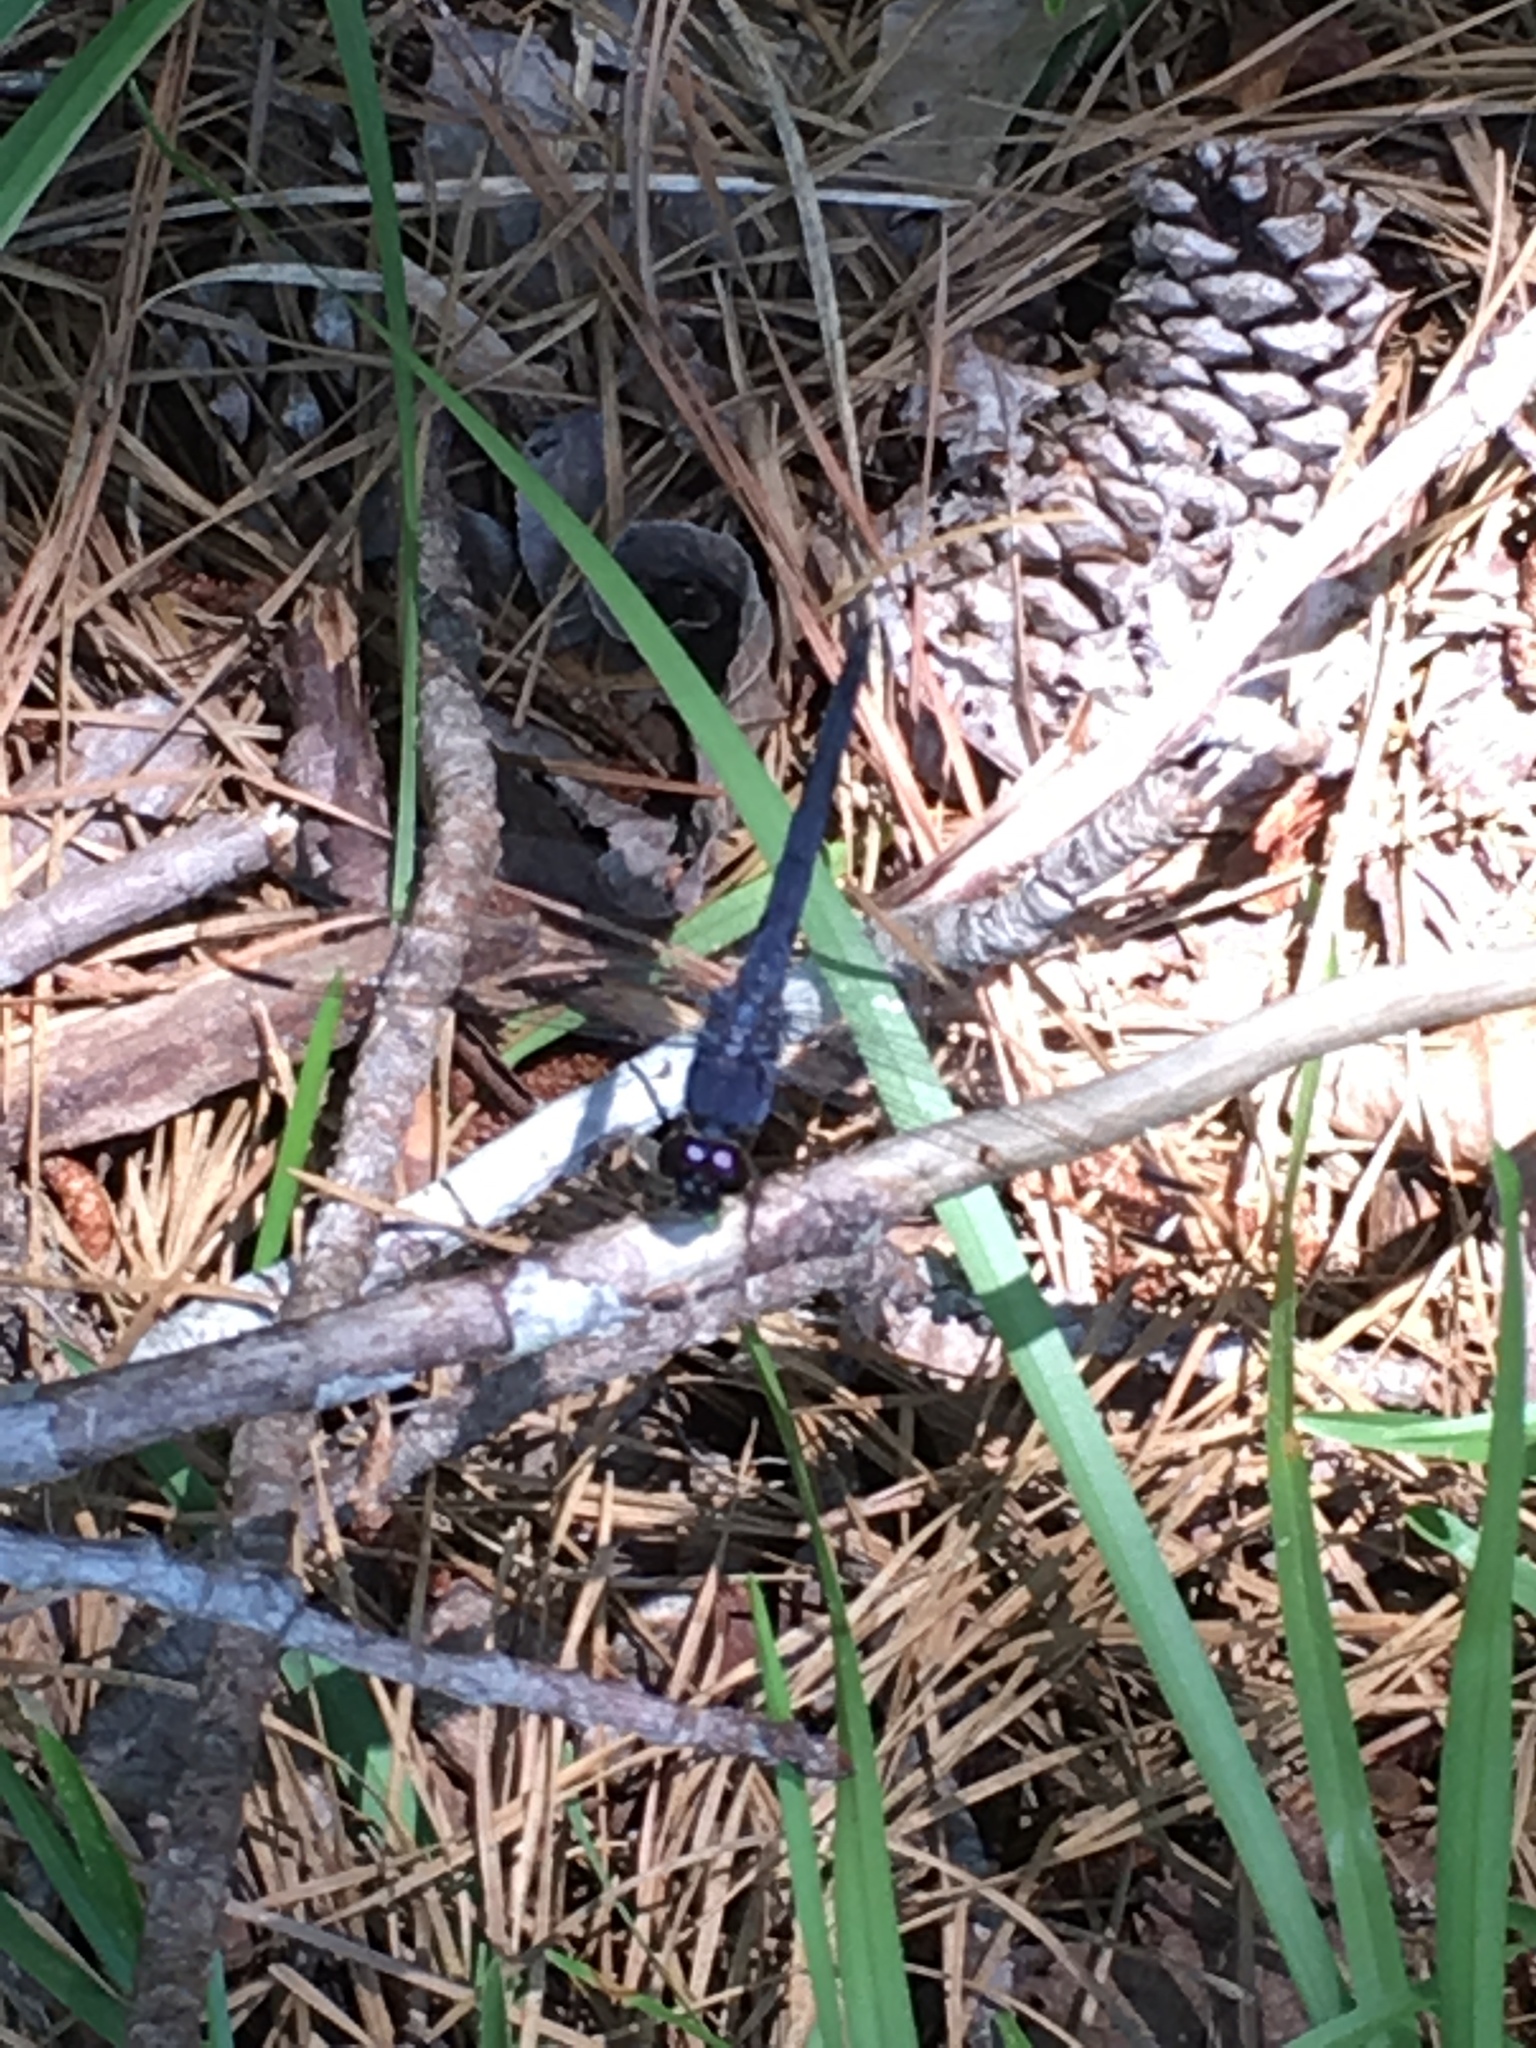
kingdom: Animalia
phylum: Arthropoda
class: Insecta
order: Odonata
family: Libellulidae
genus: Libellula
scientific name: Libellula incesta
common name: Slaty skimmer
